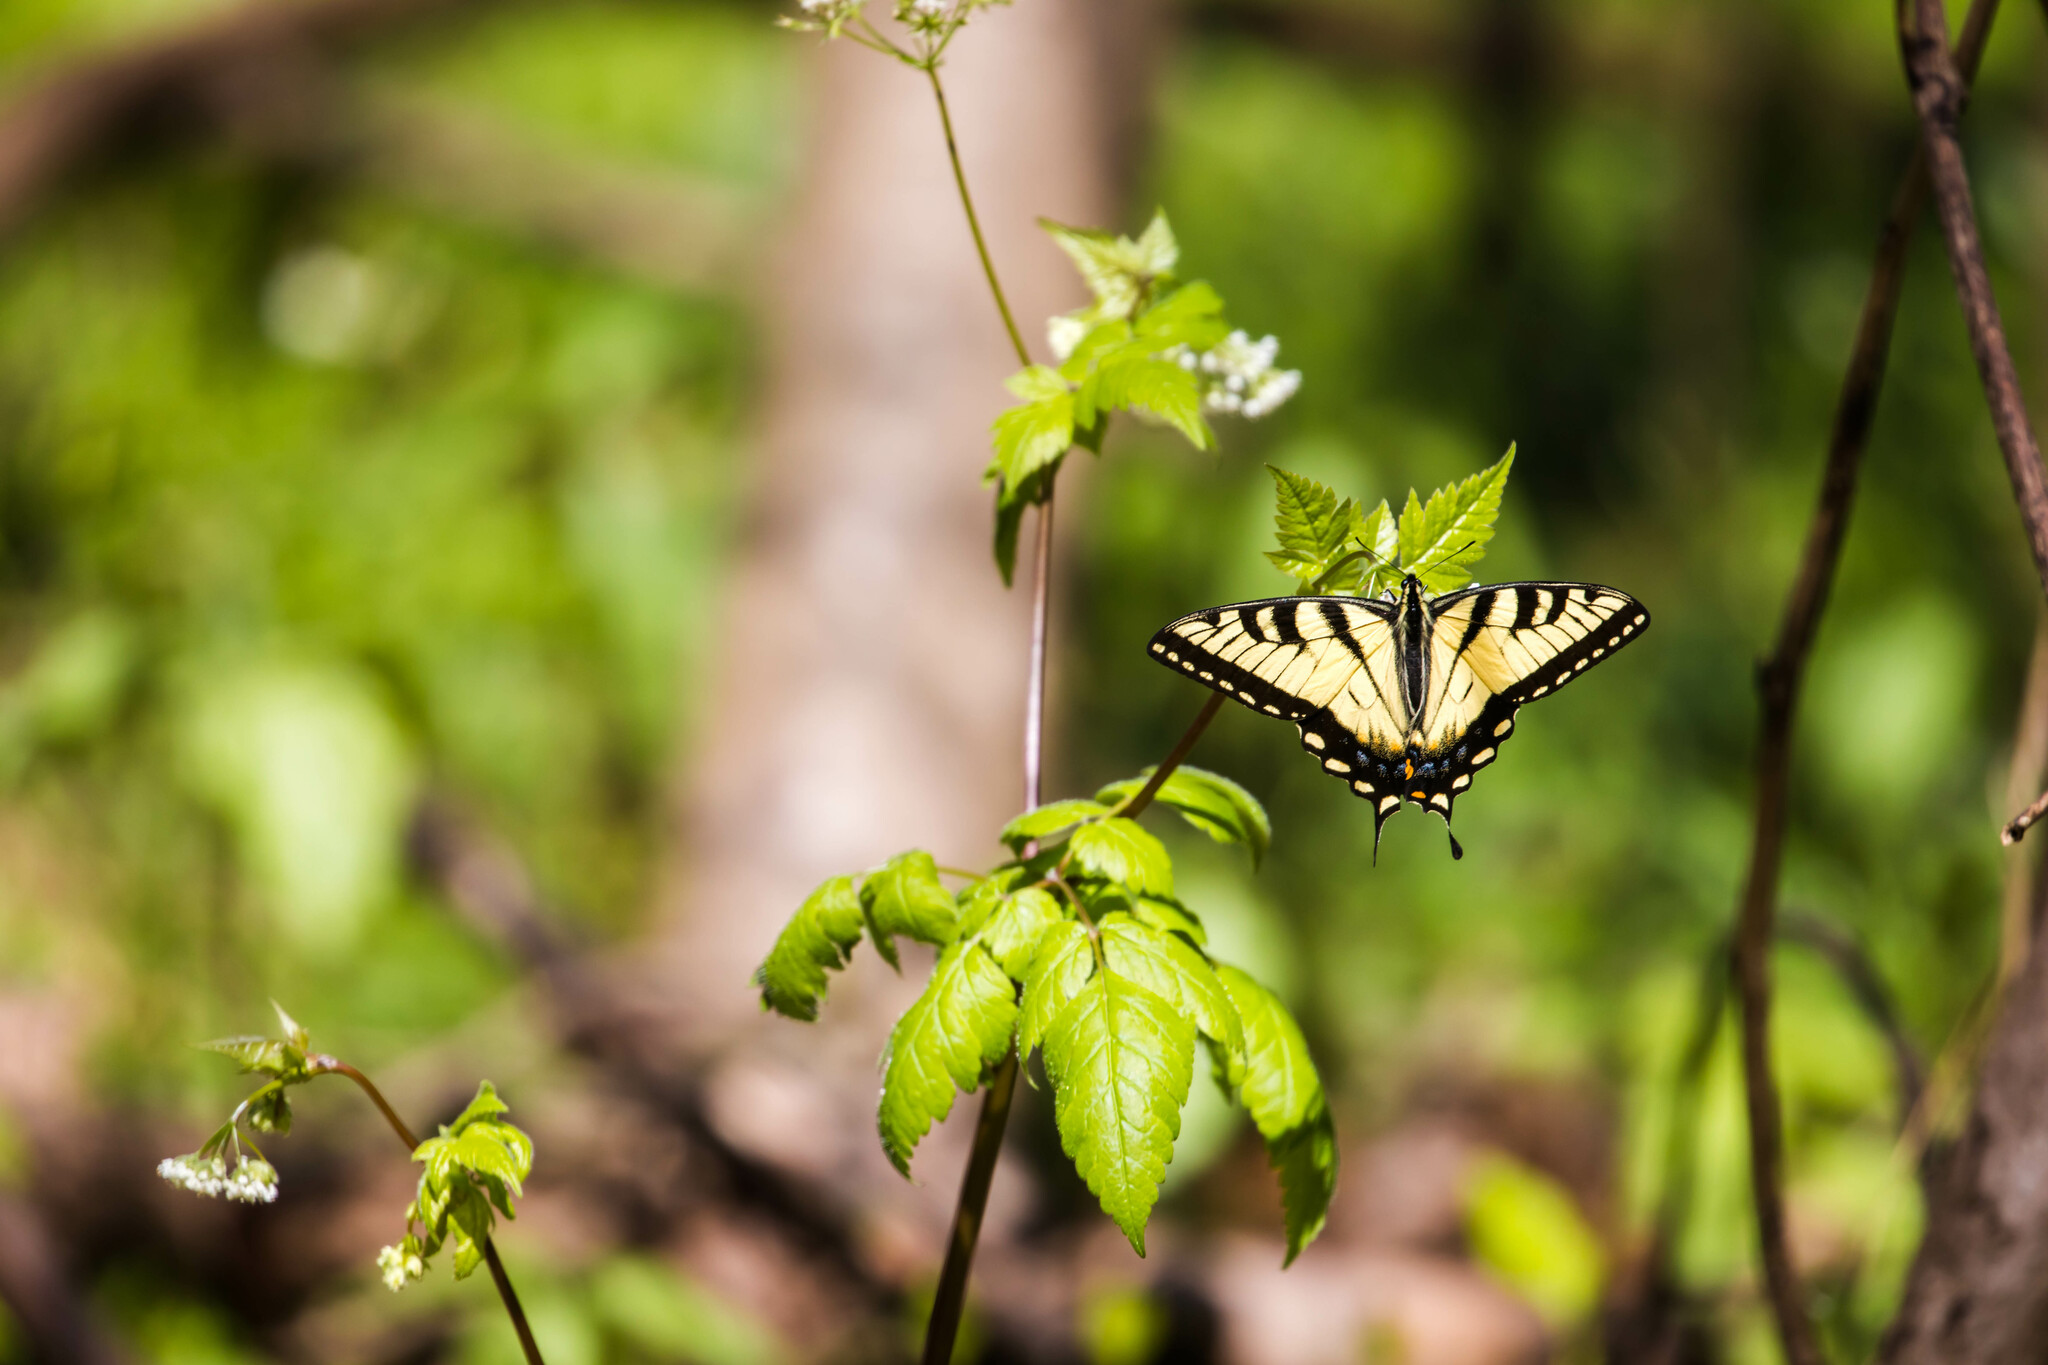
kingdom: Animalia
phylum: Arthropoda
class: Insecta
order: Lepidoptera
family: Papilionidae
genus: Papilio
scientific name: Papilio glaucus
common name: Tiger swallowtail
